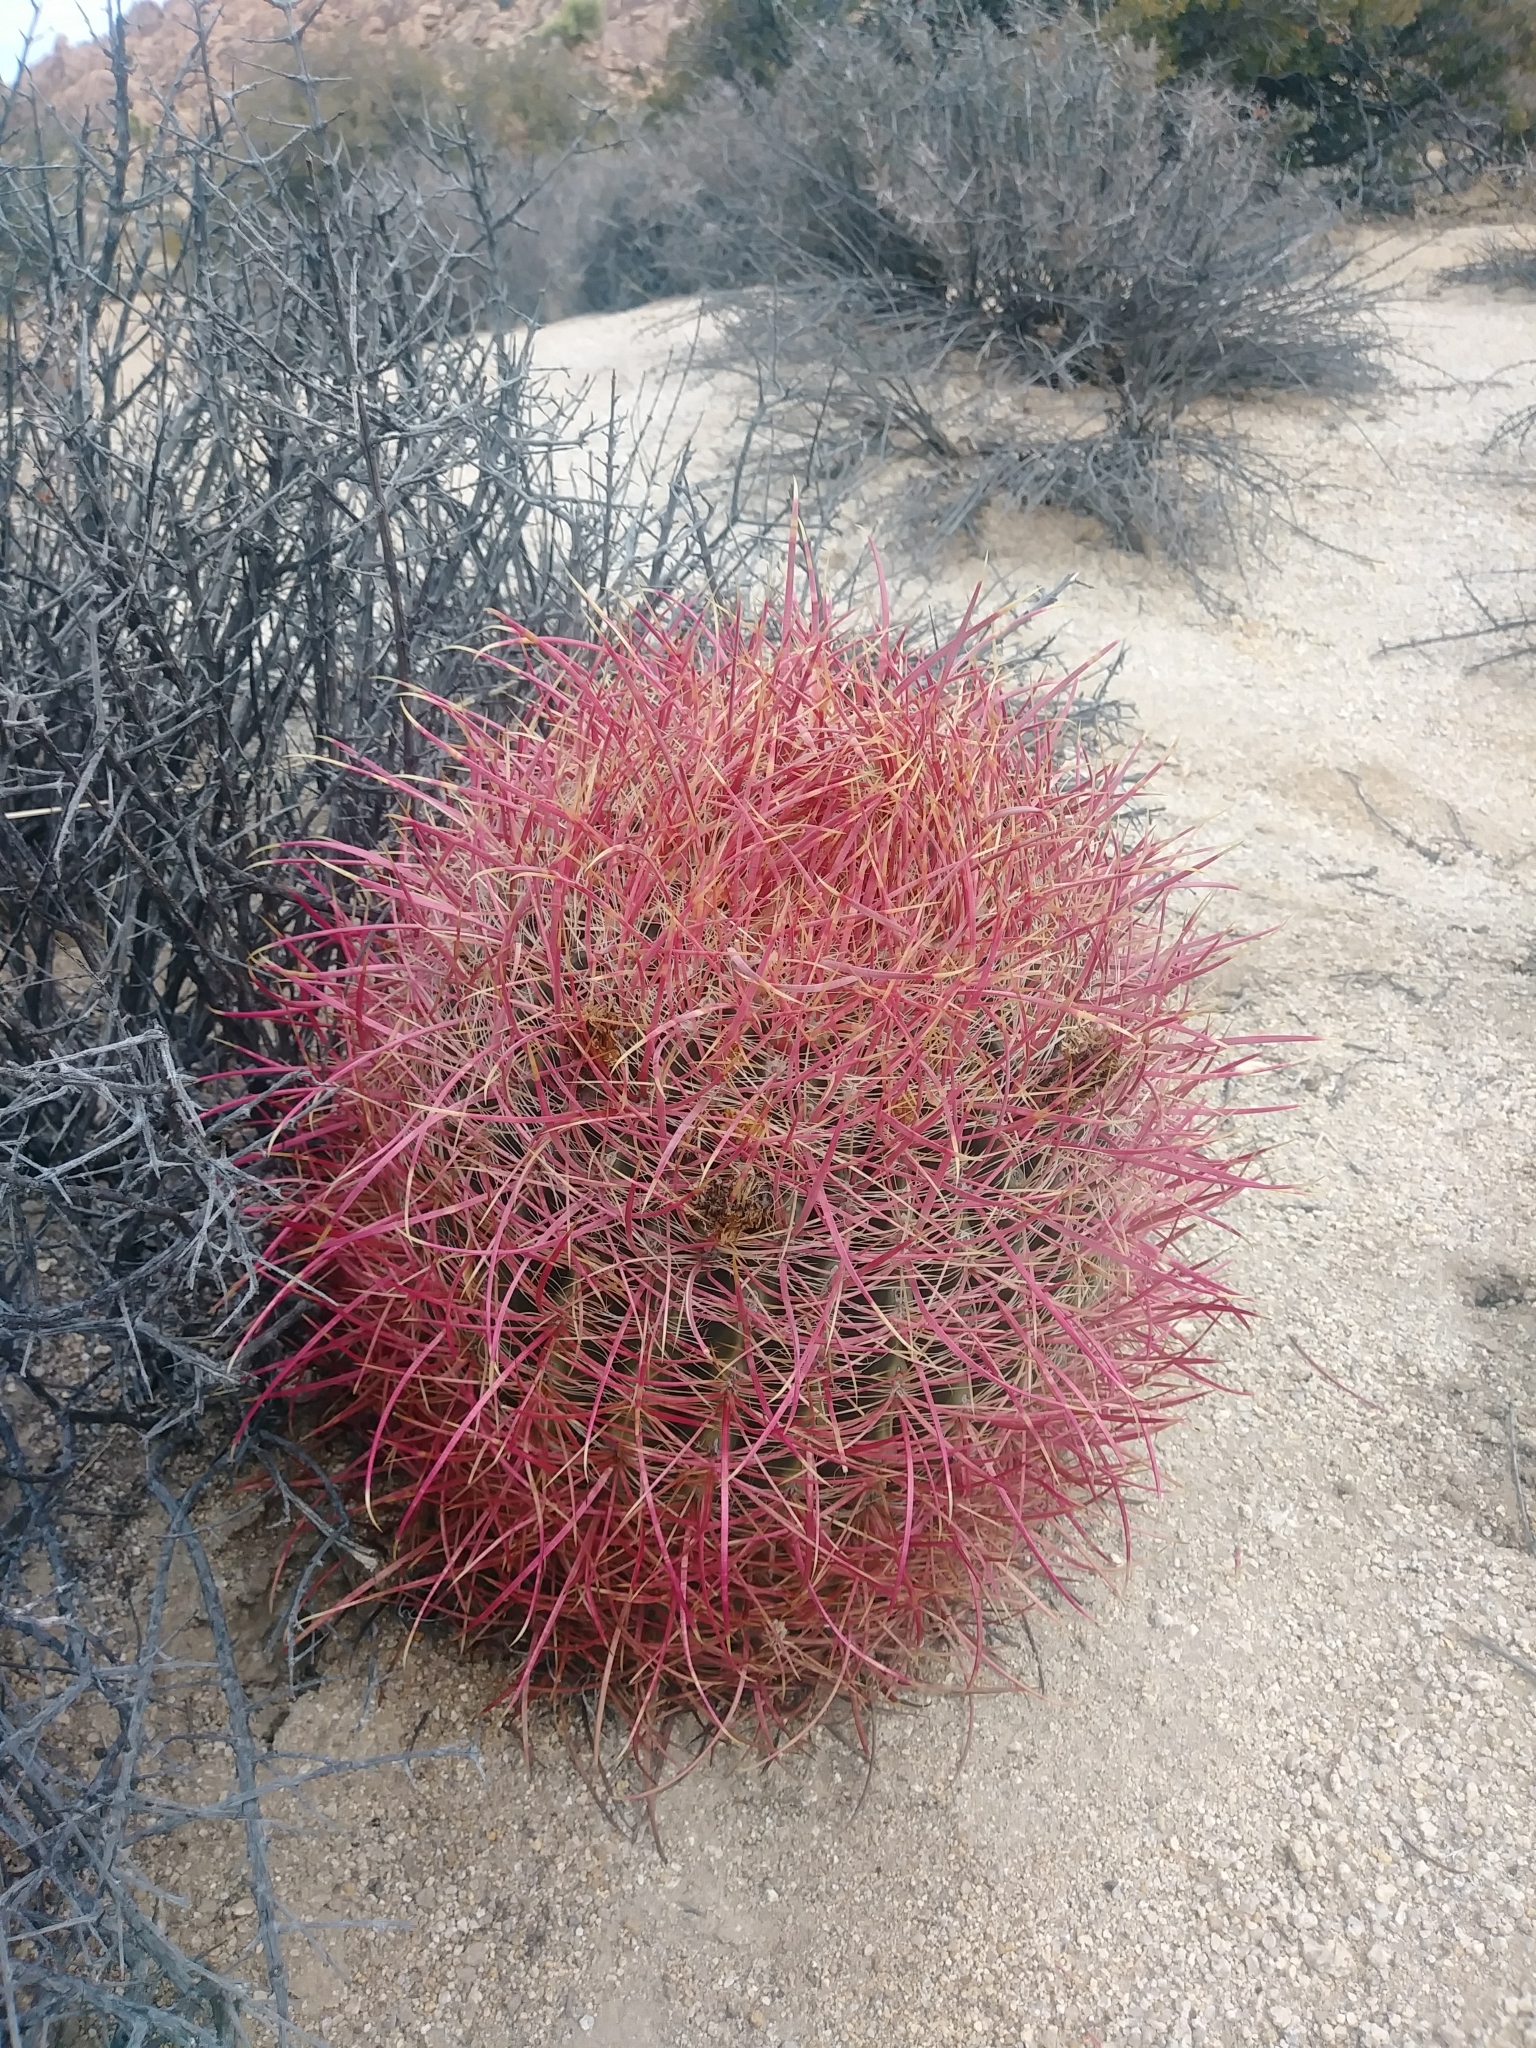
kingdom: Plantae
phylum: Tracheophyta
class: Magnoliopsida
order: Caryophyllales
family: Cactaceae
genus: Ferocactus
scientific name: Ferocactus cylindraceus
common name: California barrel cactus
